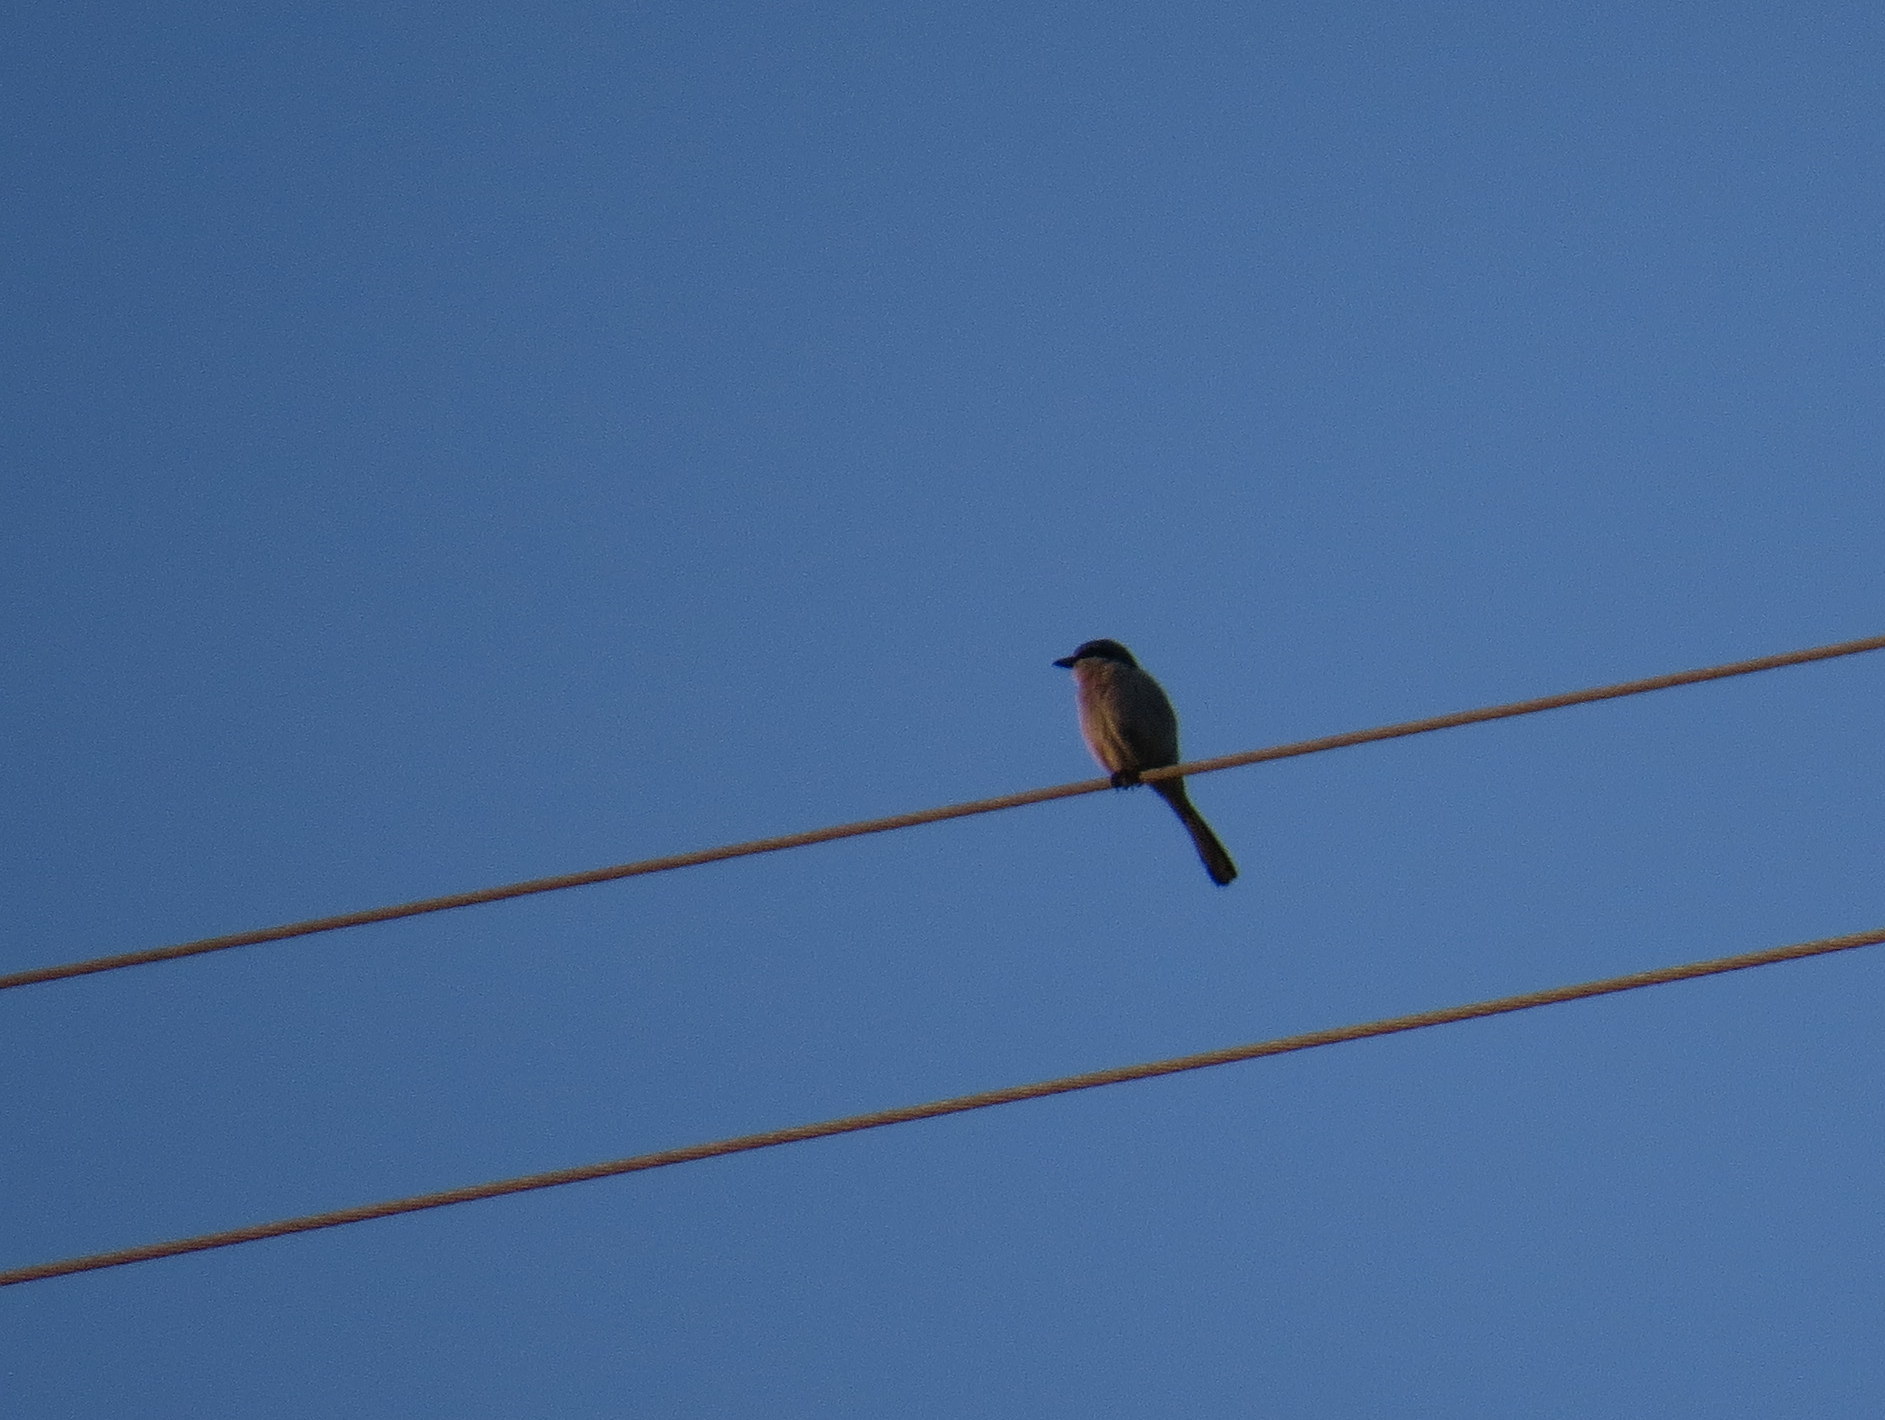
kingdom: Animalia
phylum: Chordata
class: Aves
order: Passeriformes
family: Laniidae
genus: Lanius
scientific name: Lanius meridionalis
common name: Iberian grey shrike
